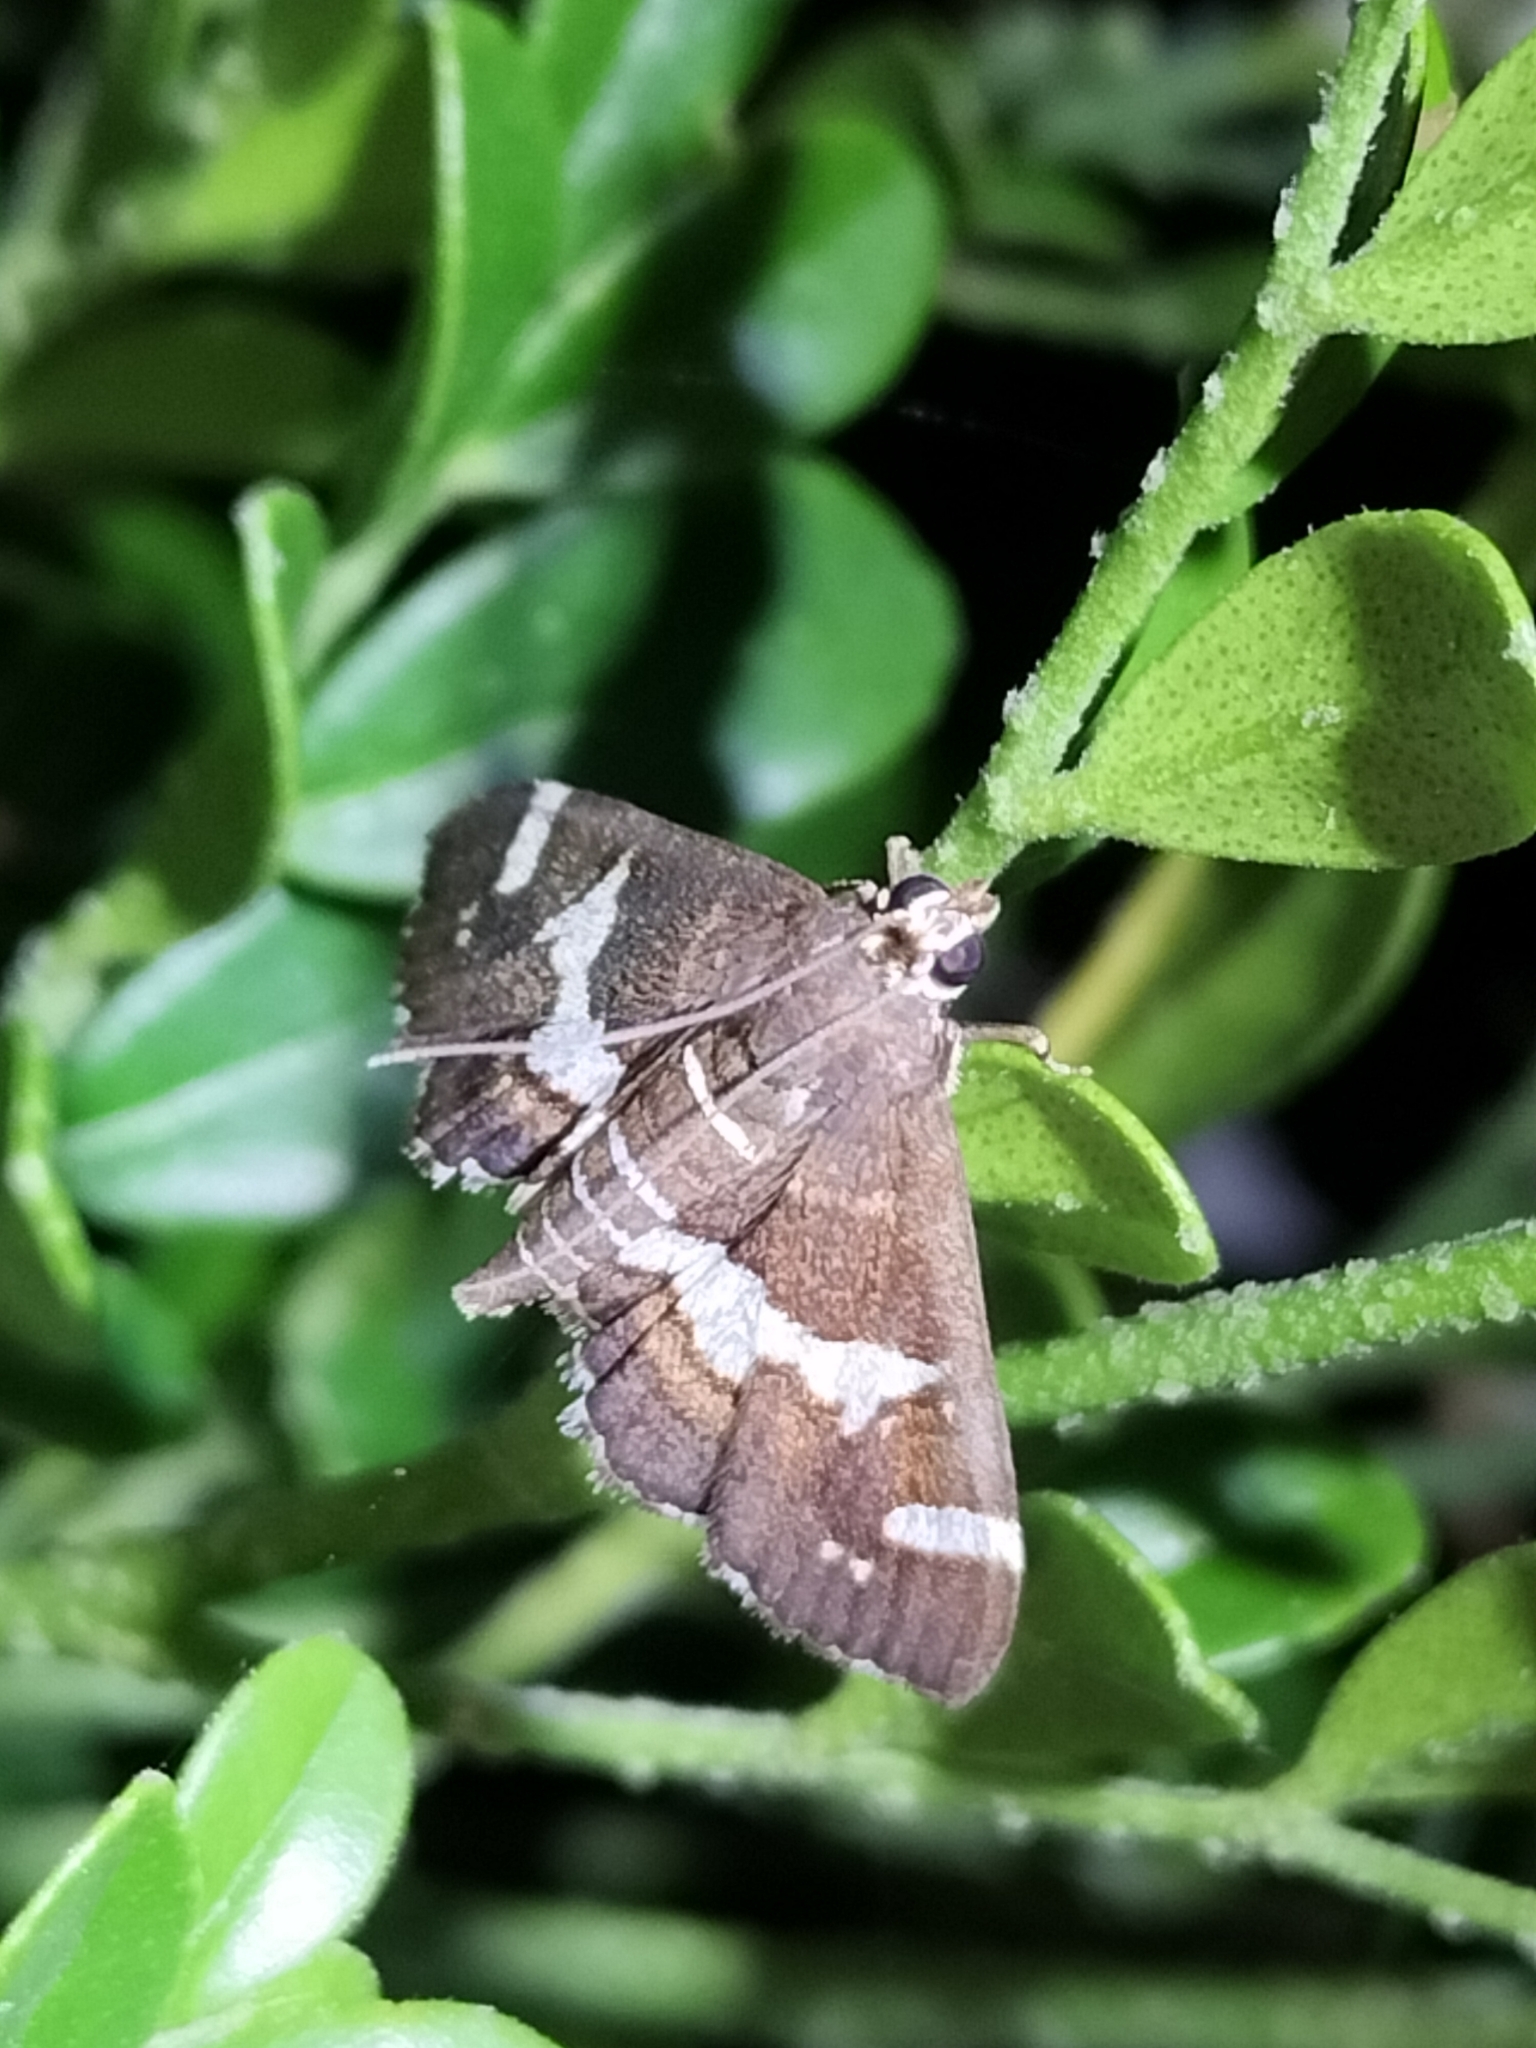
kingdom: Animalia
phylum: Arthropoda
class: Insecta
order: Lepidoptera
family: Crambidae
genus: Spoladea
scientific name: Spoladea recurvalis
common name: Beet webworm moth
